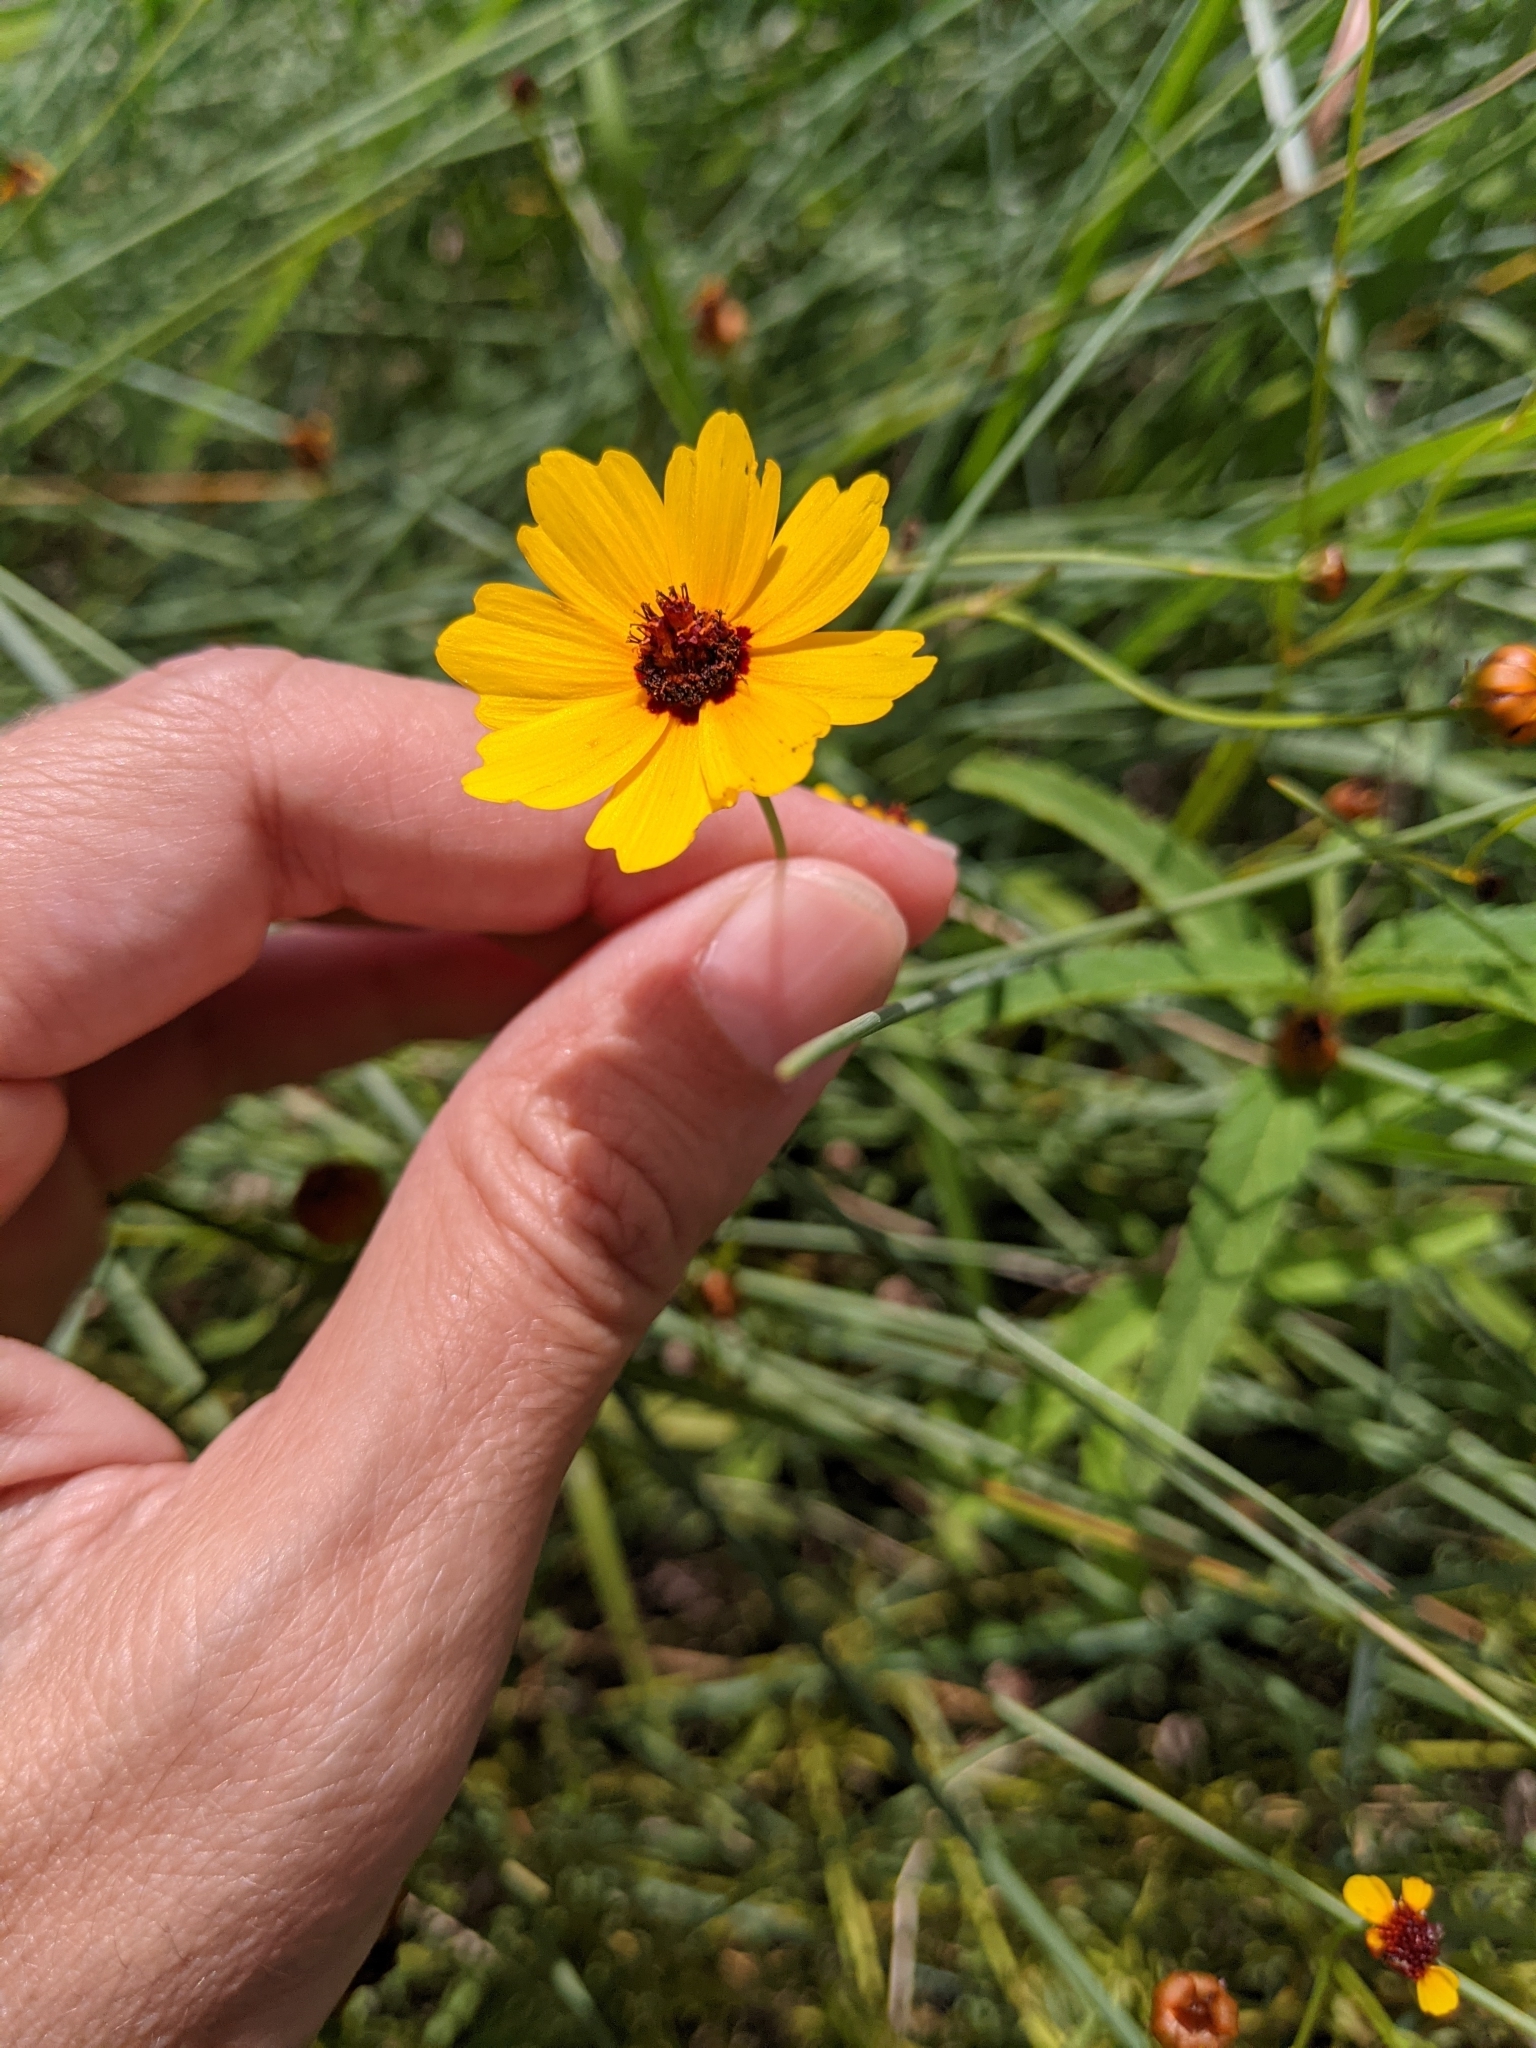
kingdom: Plantae
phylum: Tracheophyta
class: Magnoliopsida
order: Asterales
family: Asteraceae
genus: Coreopsis
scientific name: Coreopsis tinctoria
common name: Garden tickseed
